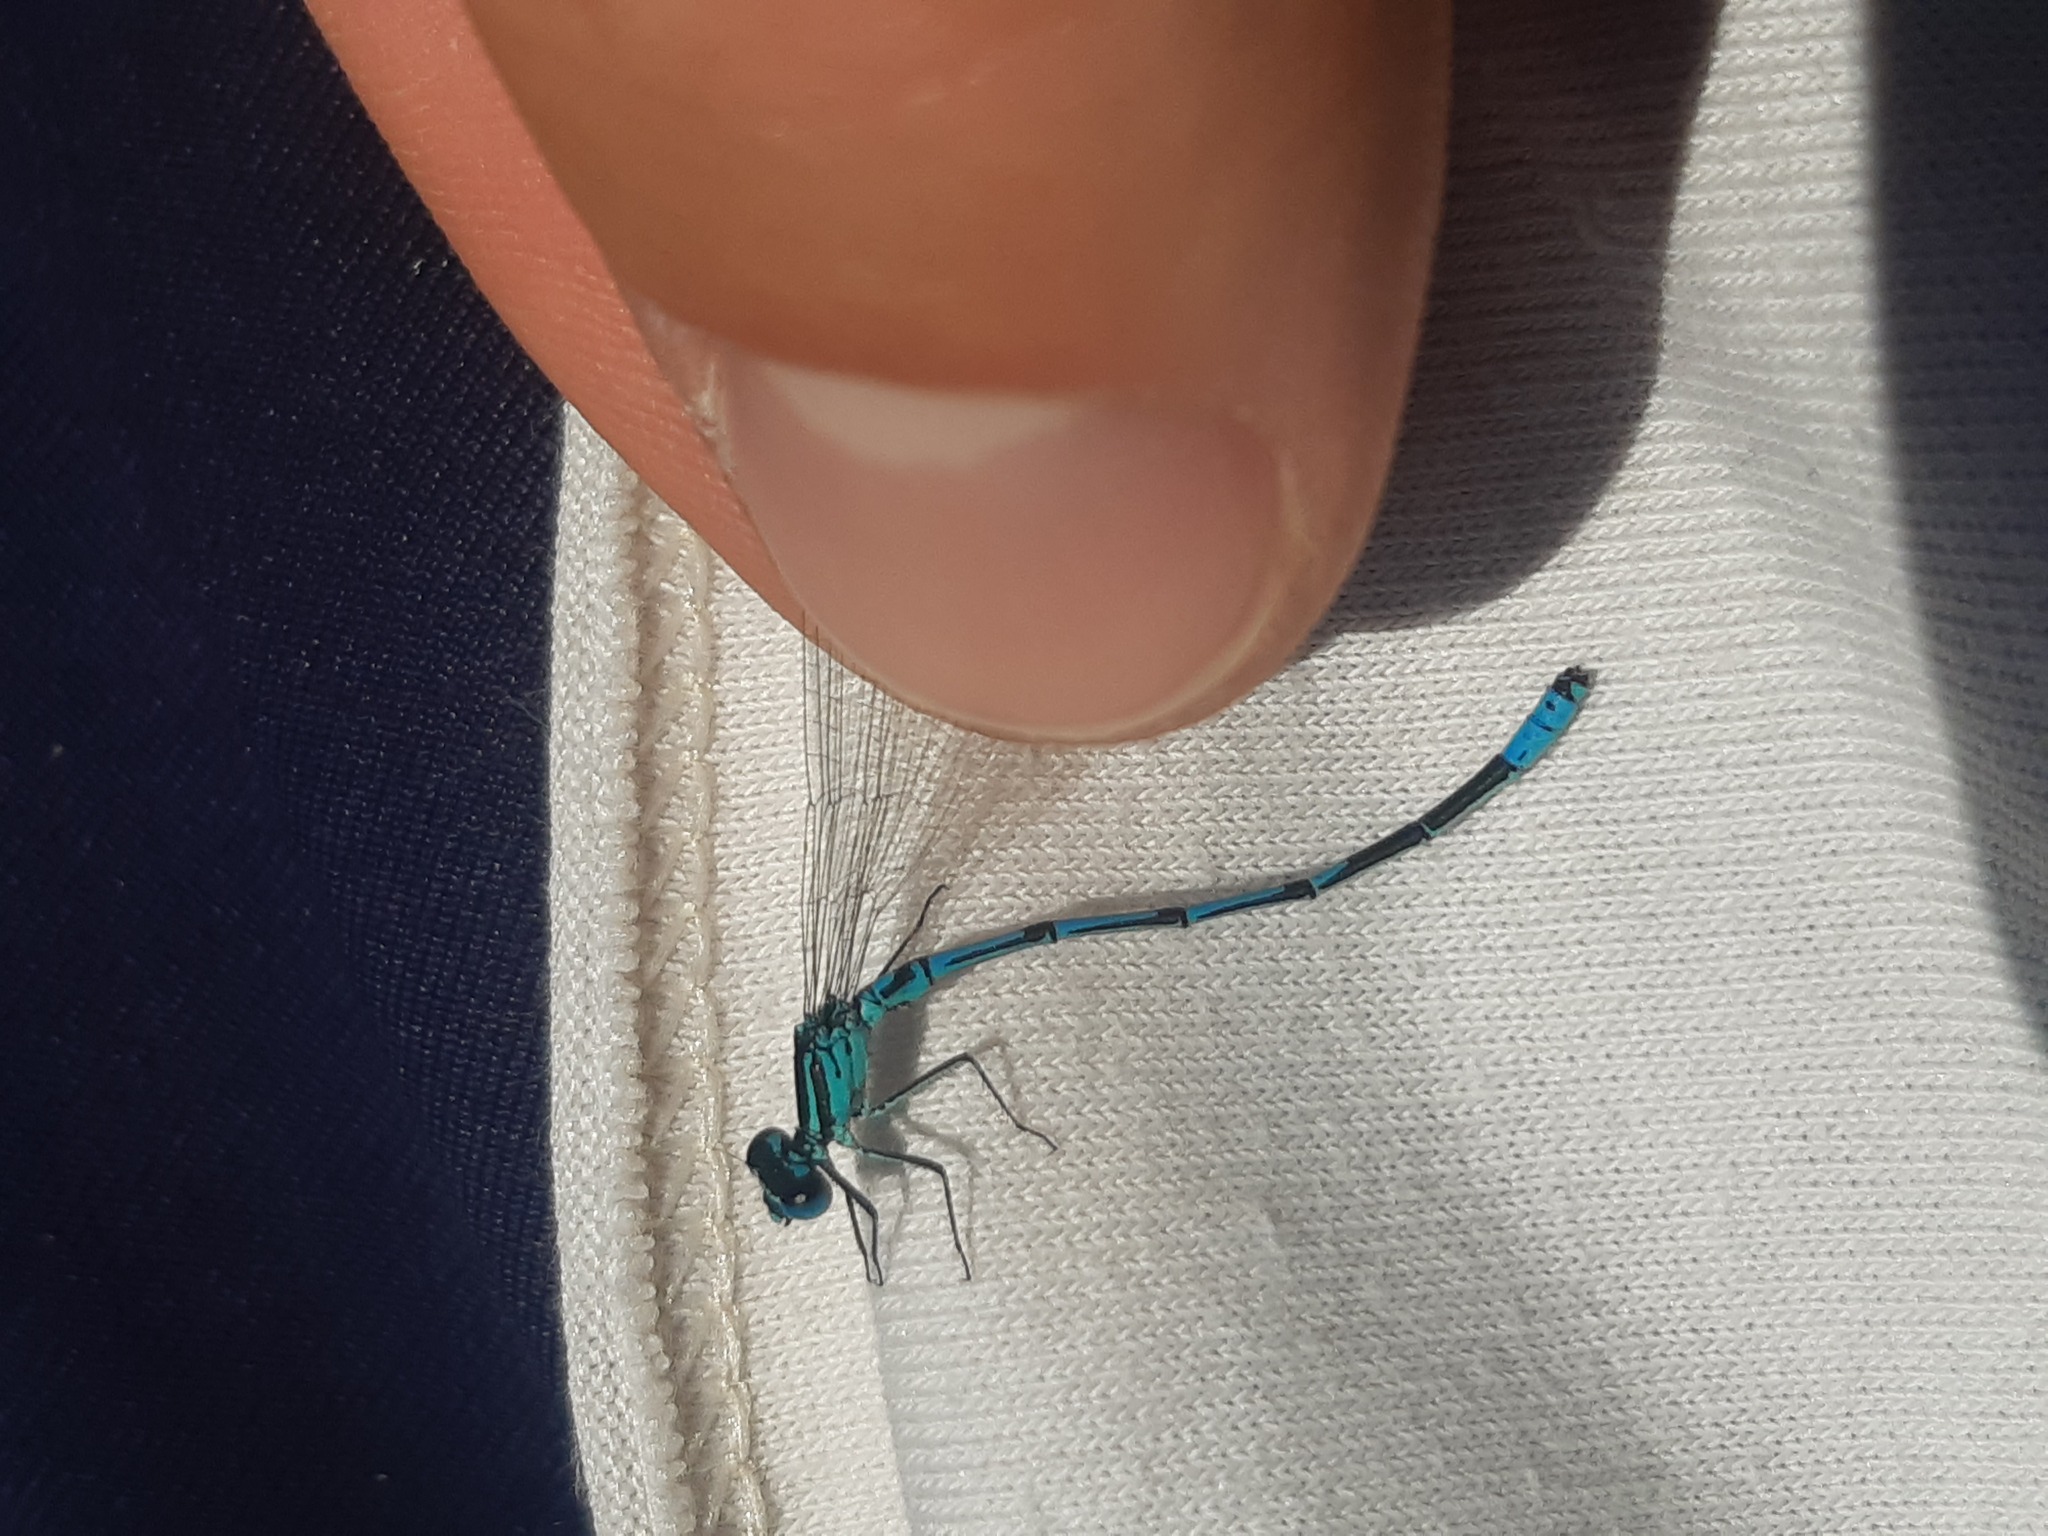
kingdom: Animalia
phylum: Arthropoda
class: Insecta
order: Odonata
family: Coenagrionidae
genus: Coenagrion
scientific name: Coenagrion puella
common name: Azure damselfly
